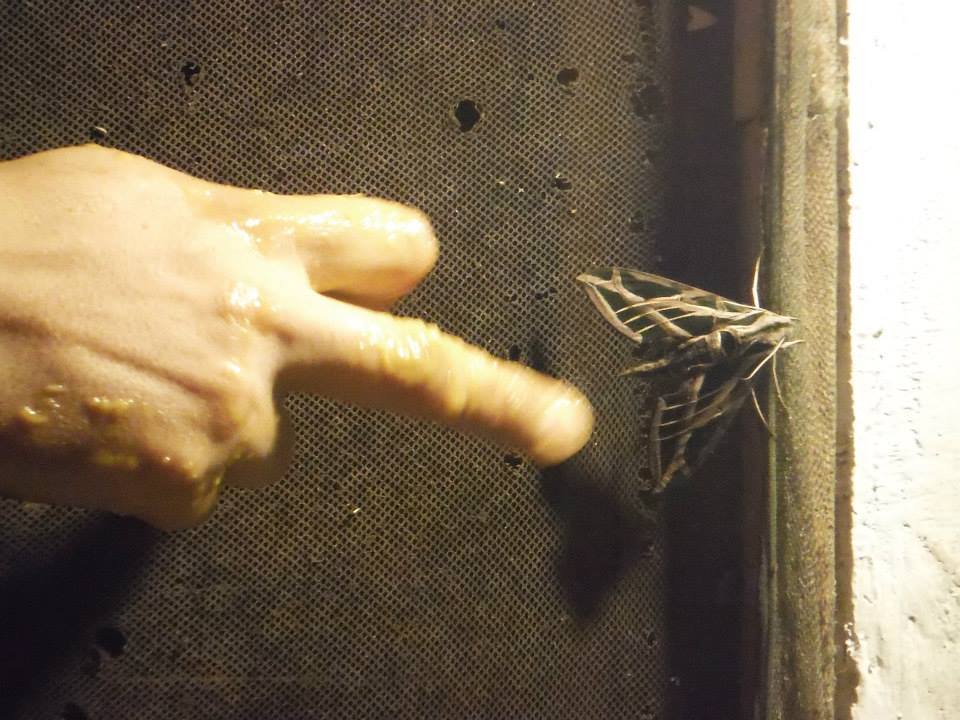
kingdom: Animalia
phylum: Arthropoda
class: Insecta
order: Lepidoptera
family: Sphingidae
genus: Eumorpha
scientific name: Eumorpha fasciatus
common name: Banded sphinx
